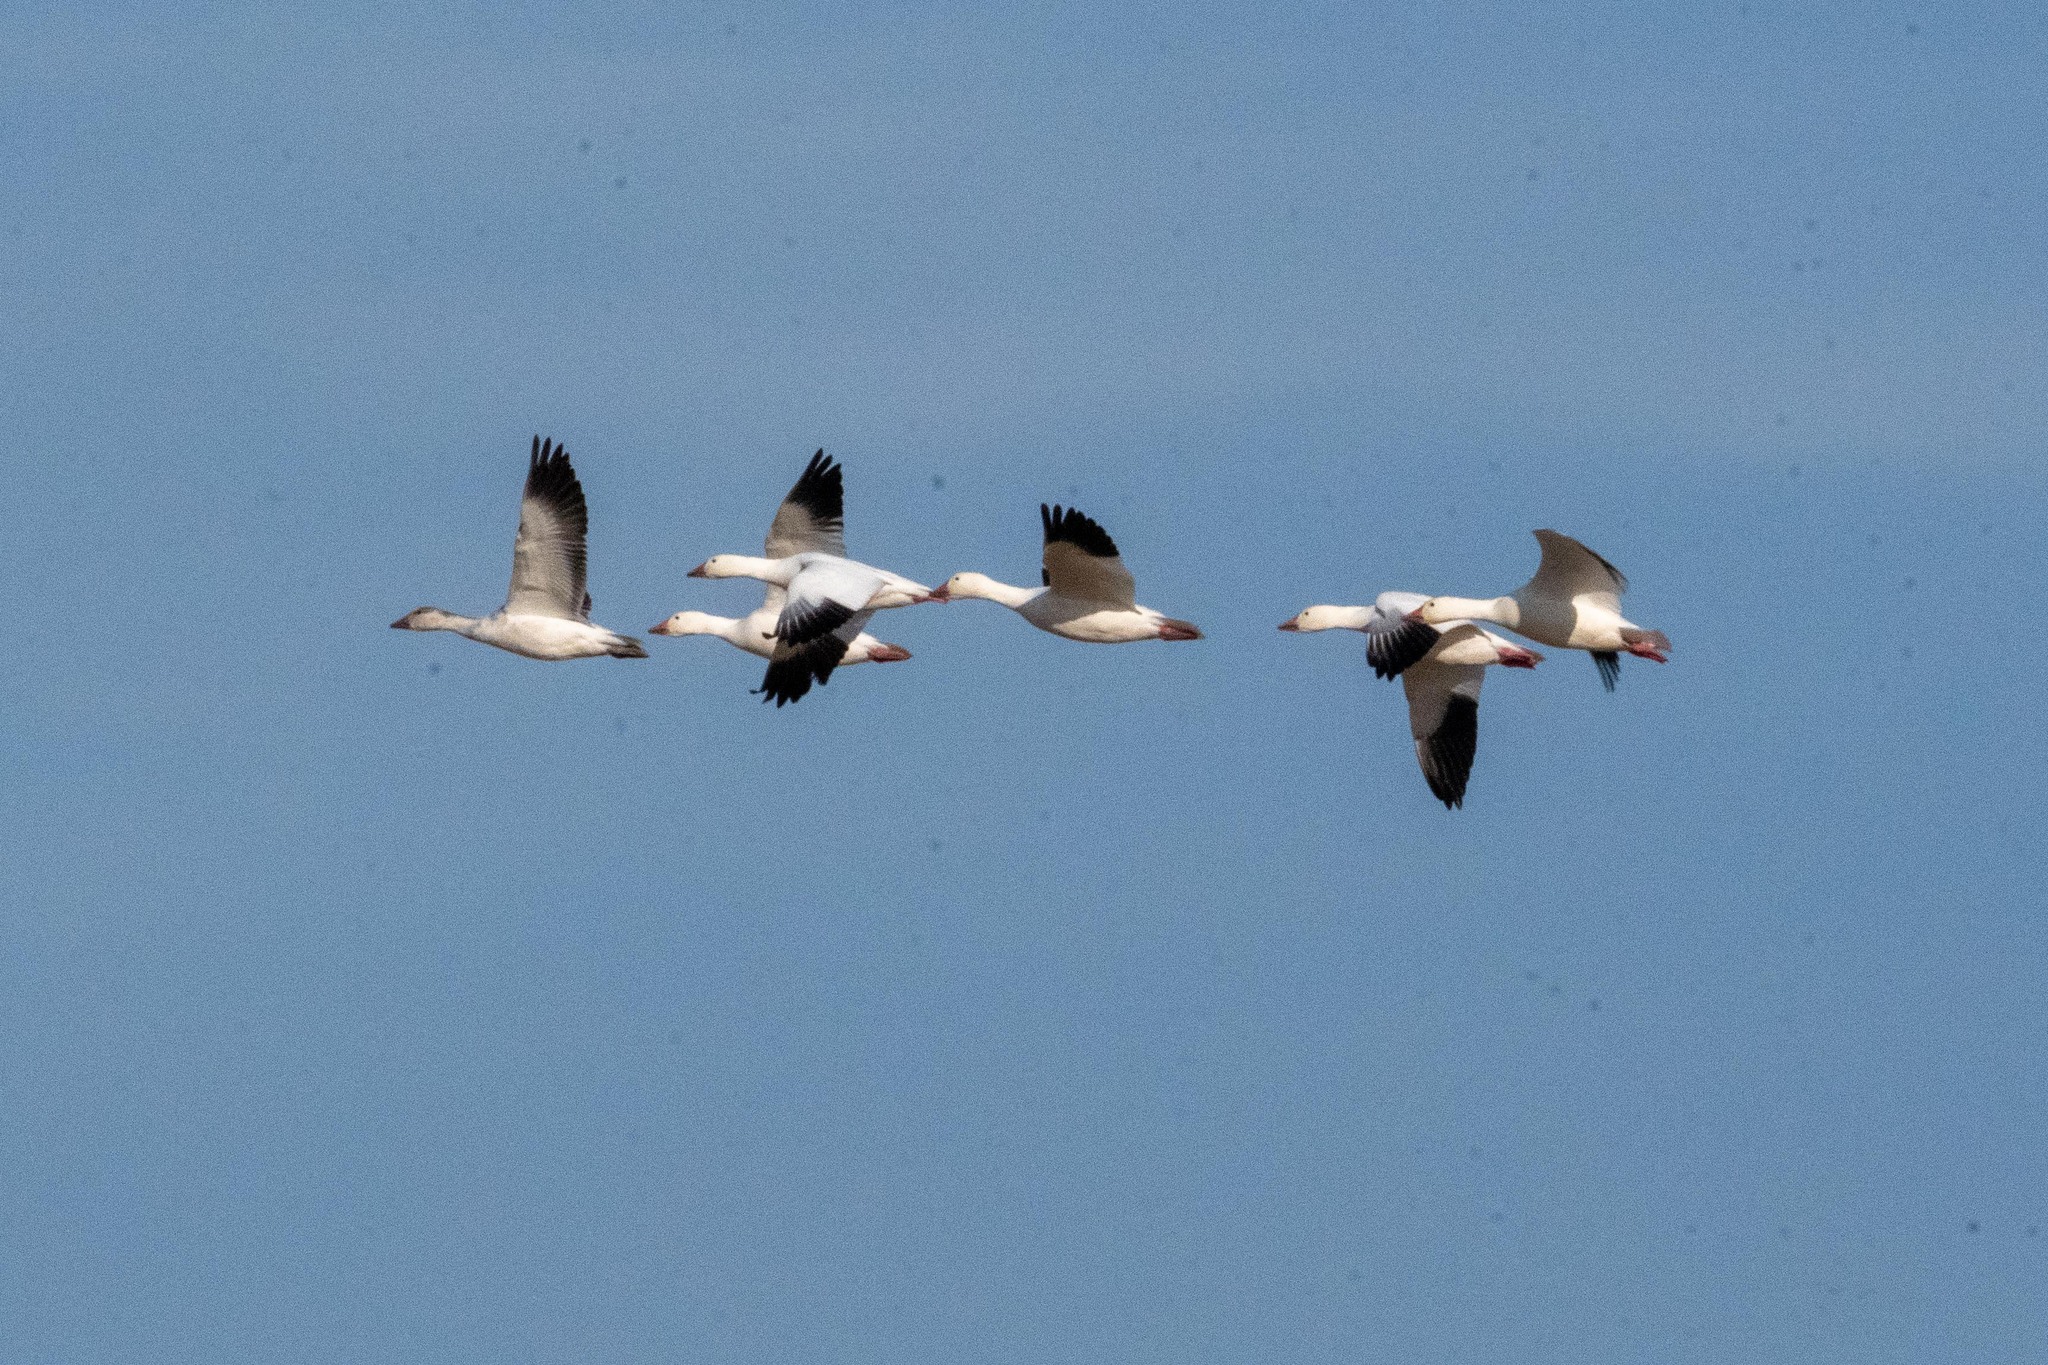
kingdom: Animalia
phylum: Chordata
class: Aves
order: Anseriformes
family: Anatidae
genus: Anser
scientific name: Anser caerulescens
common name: Snow goose
